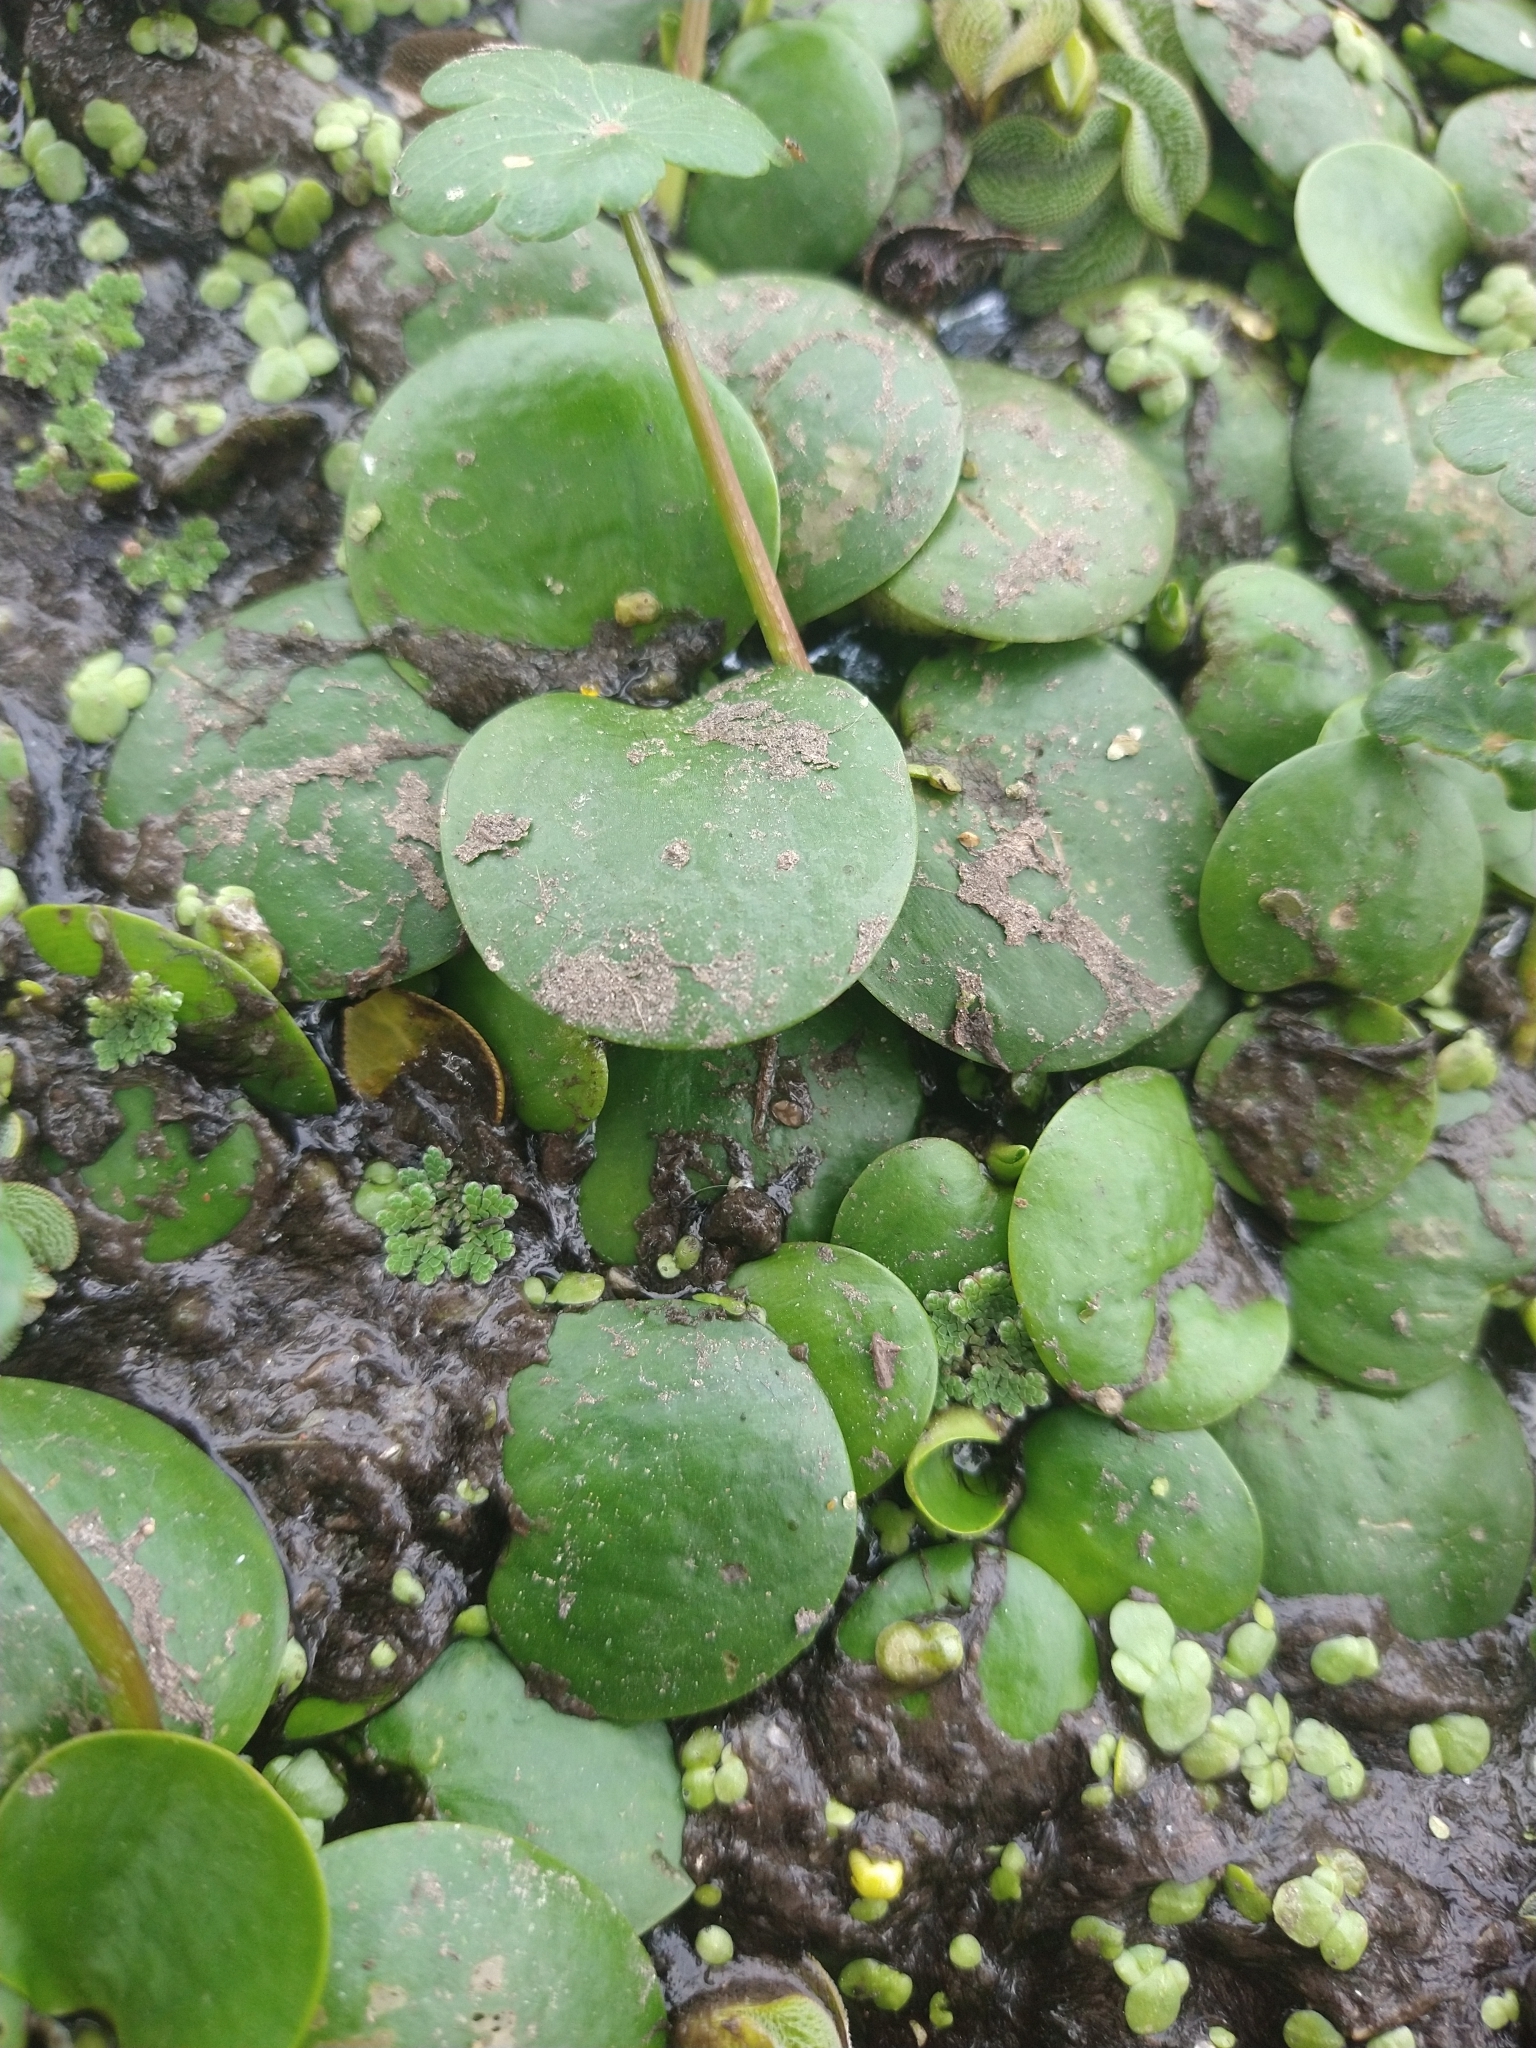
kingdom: Plantae
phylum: Tracheophyta
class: Liliopsida
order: Alismatales
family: Hydrocharitaceae
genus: Hydrocharis
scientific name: Hydrocharis laevigata
